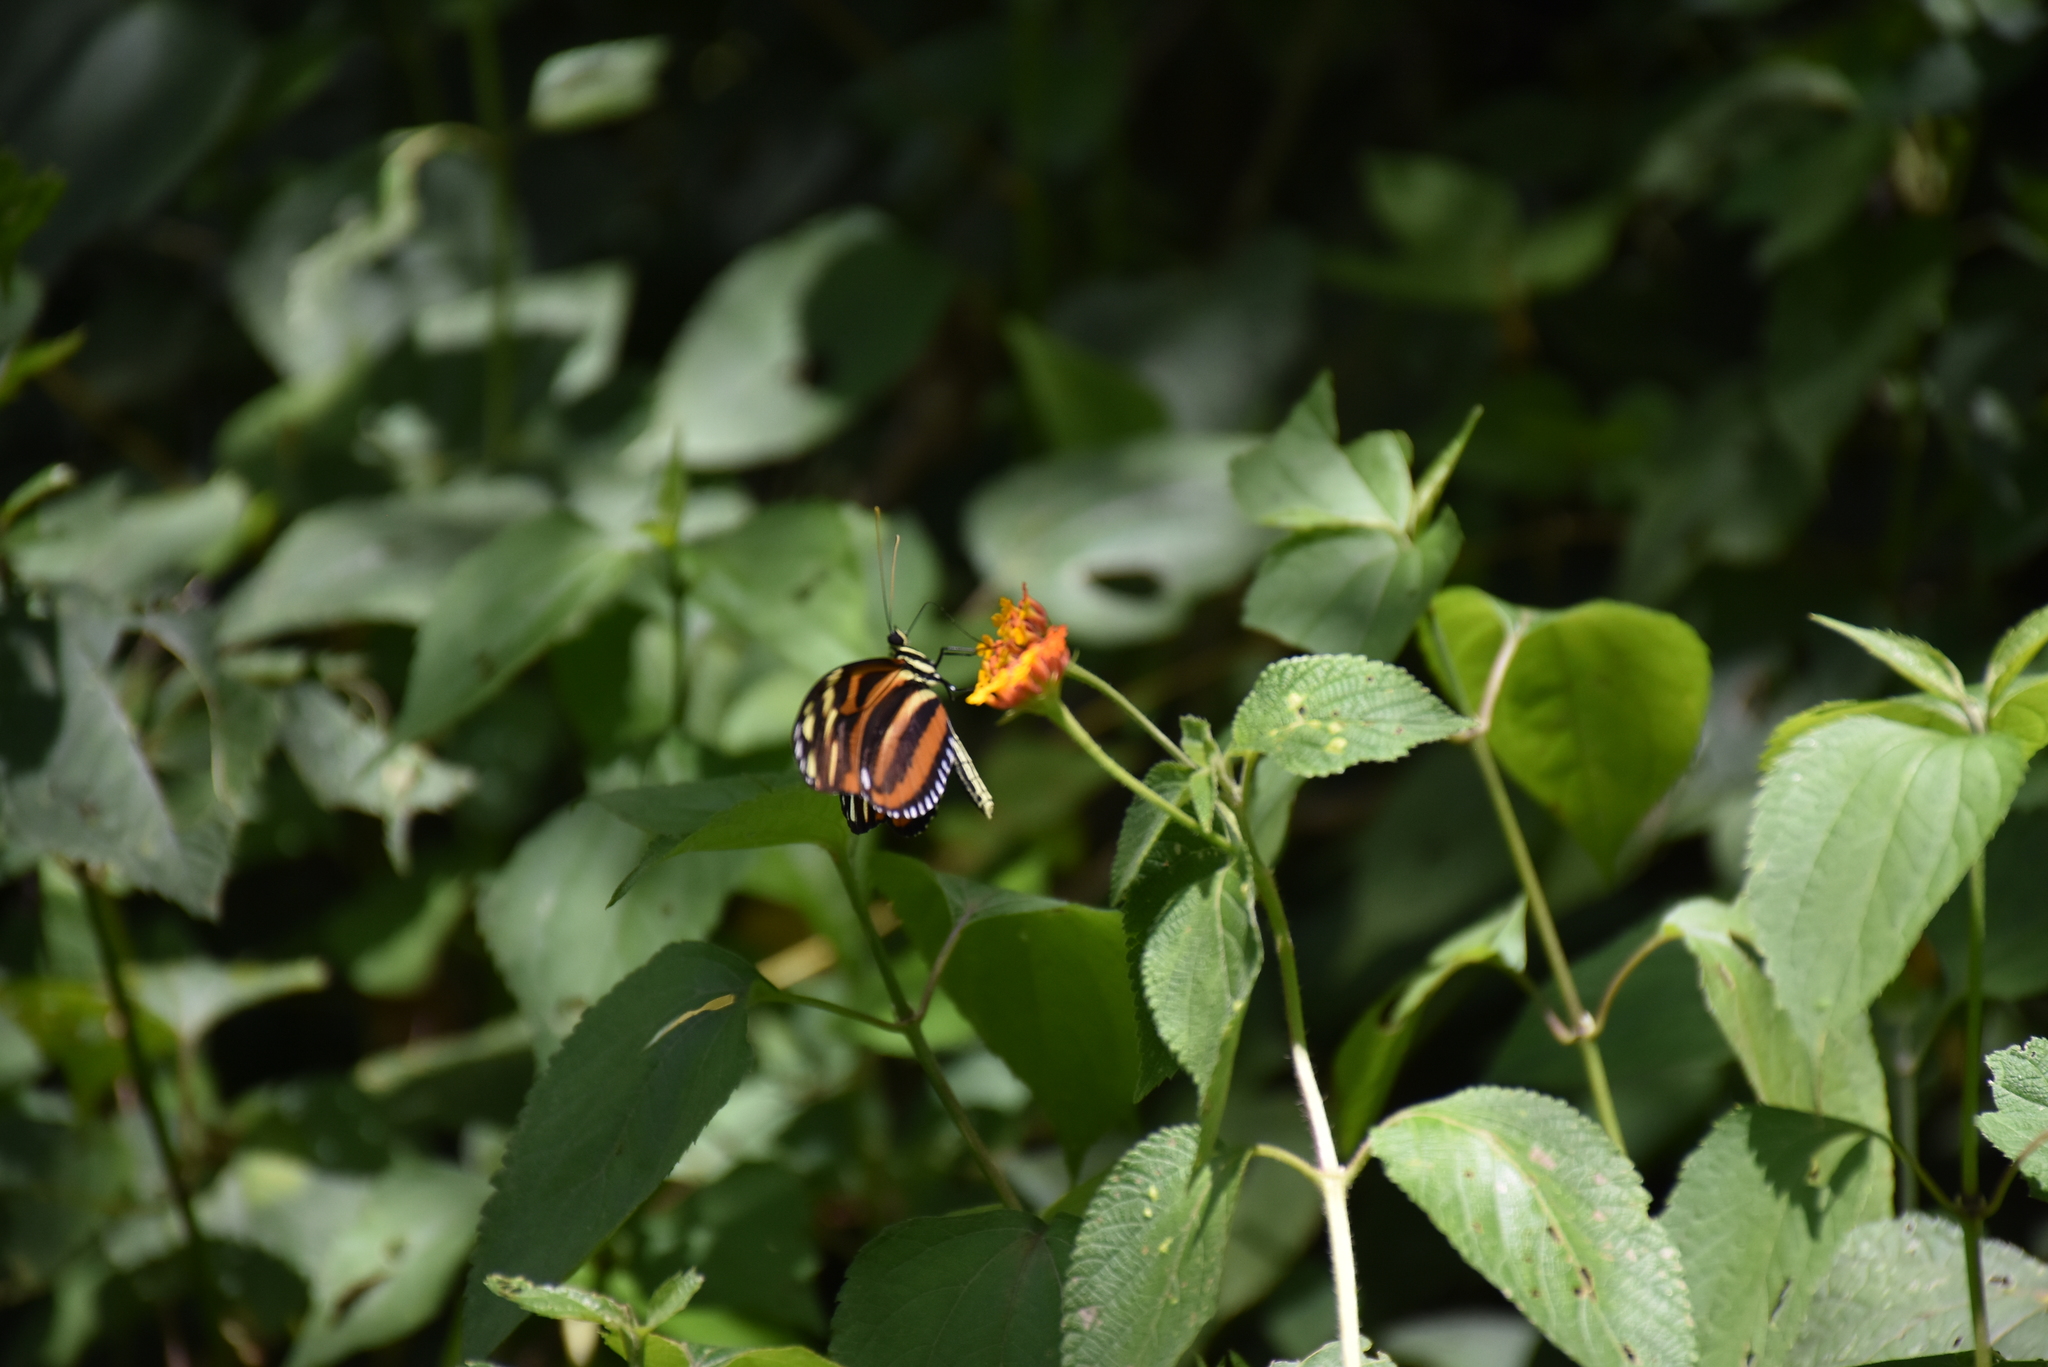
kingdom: Animalia
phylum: Arthropoda
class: Insecta
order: Lepidoptera
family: Nymphalidae
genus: Heliconius
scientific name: Heliconius ismenius
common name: Ismenius tiger
